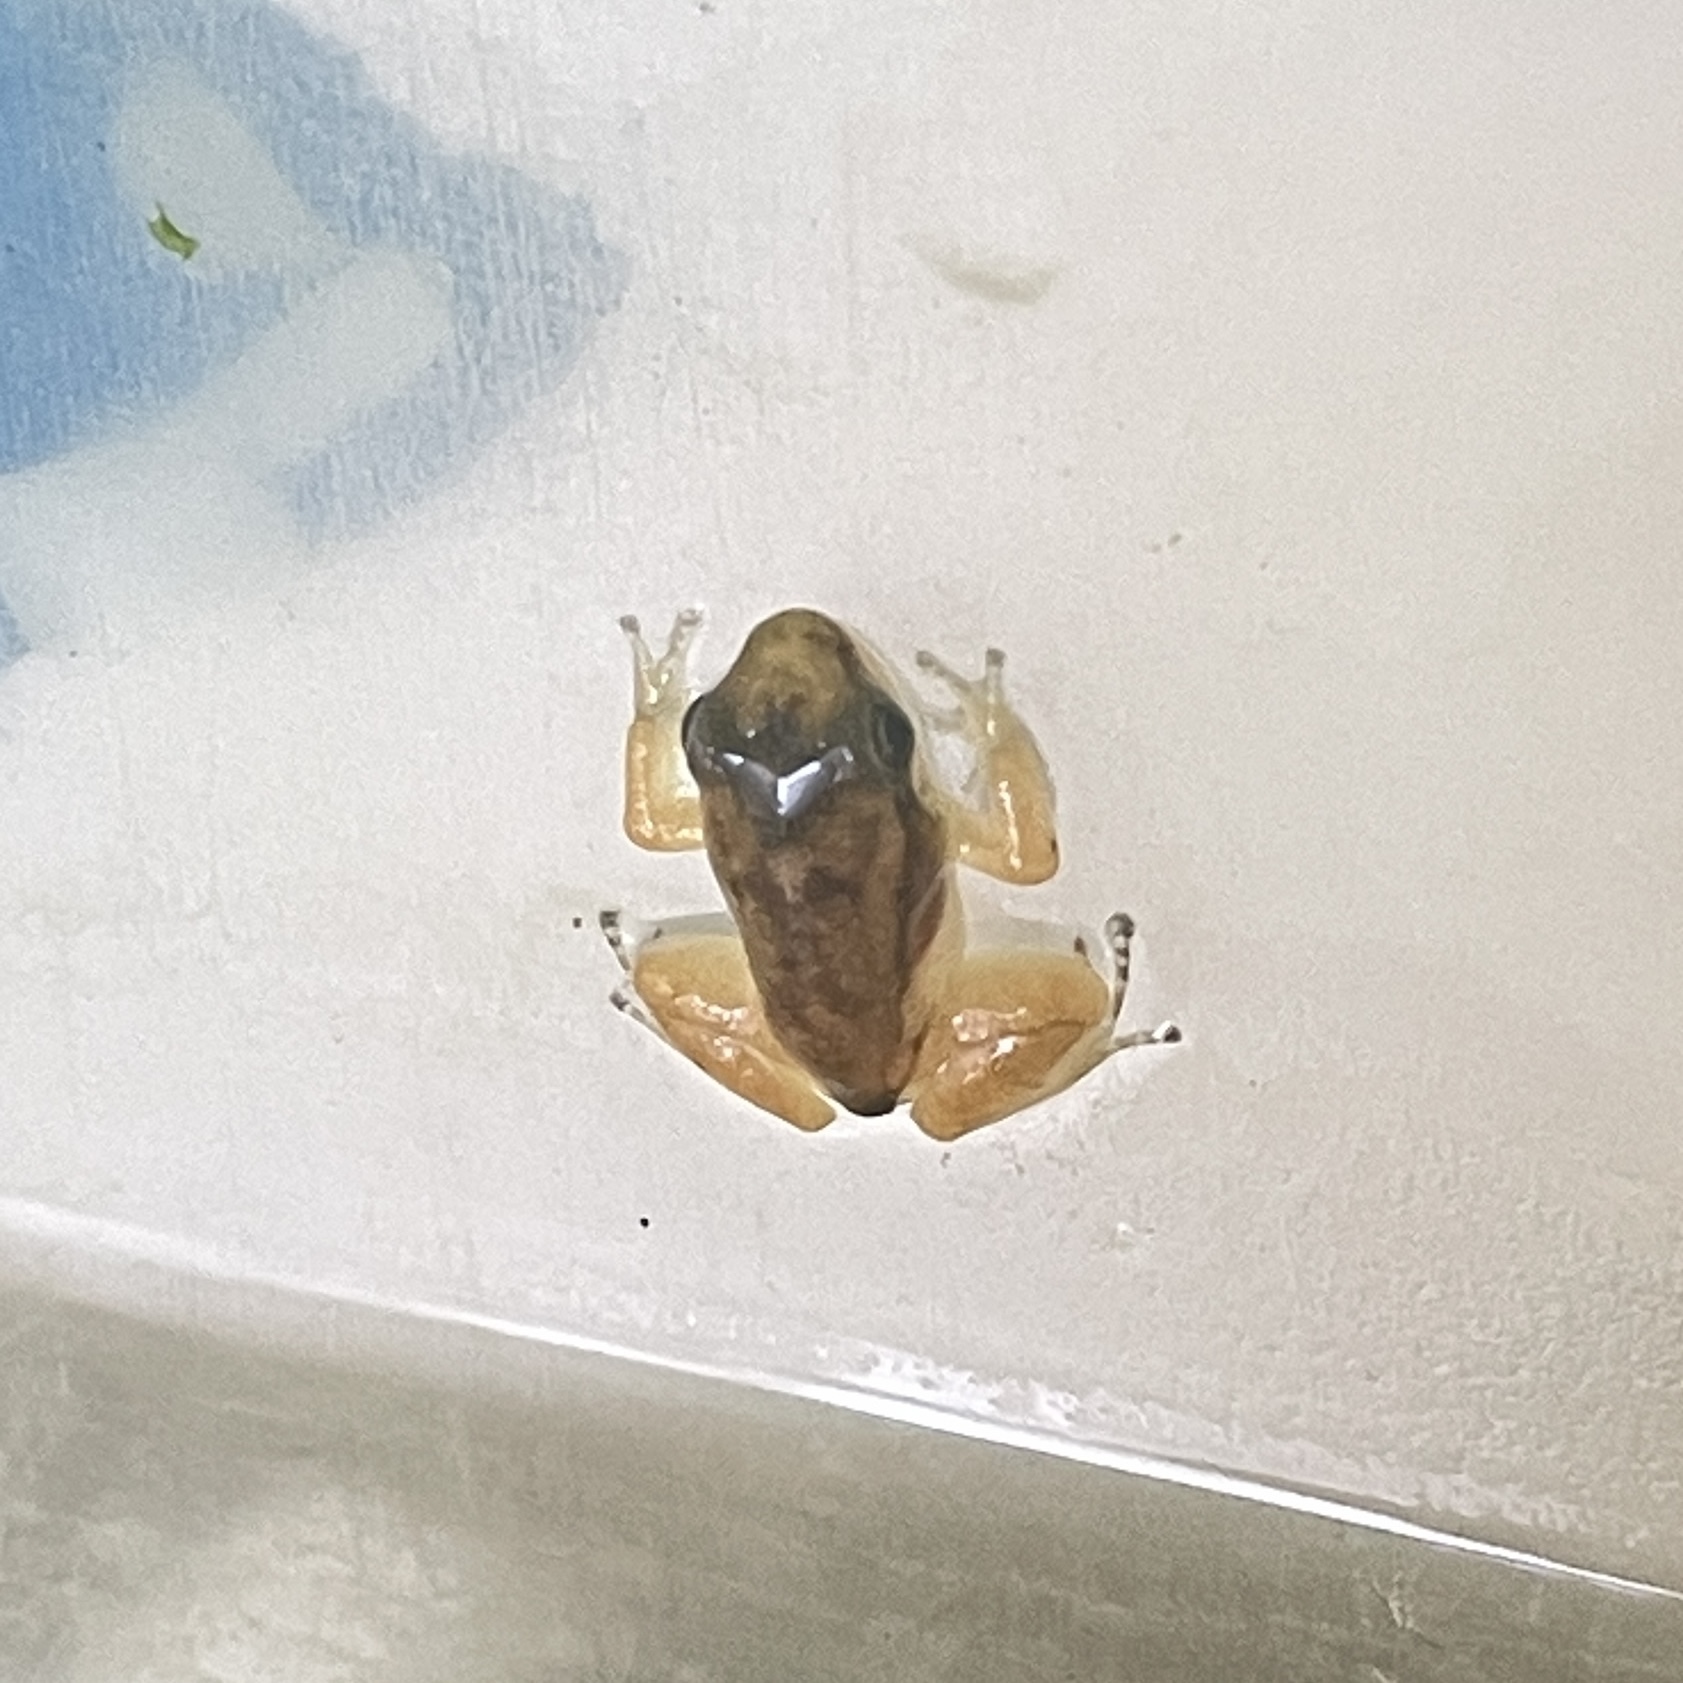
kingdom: Animalia
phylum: Chordata
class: Amphibia
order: Anura
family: Aromobatidae
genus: Mannophryne
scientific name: Mannophryne trinitatis
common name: Trinidad poison frog
